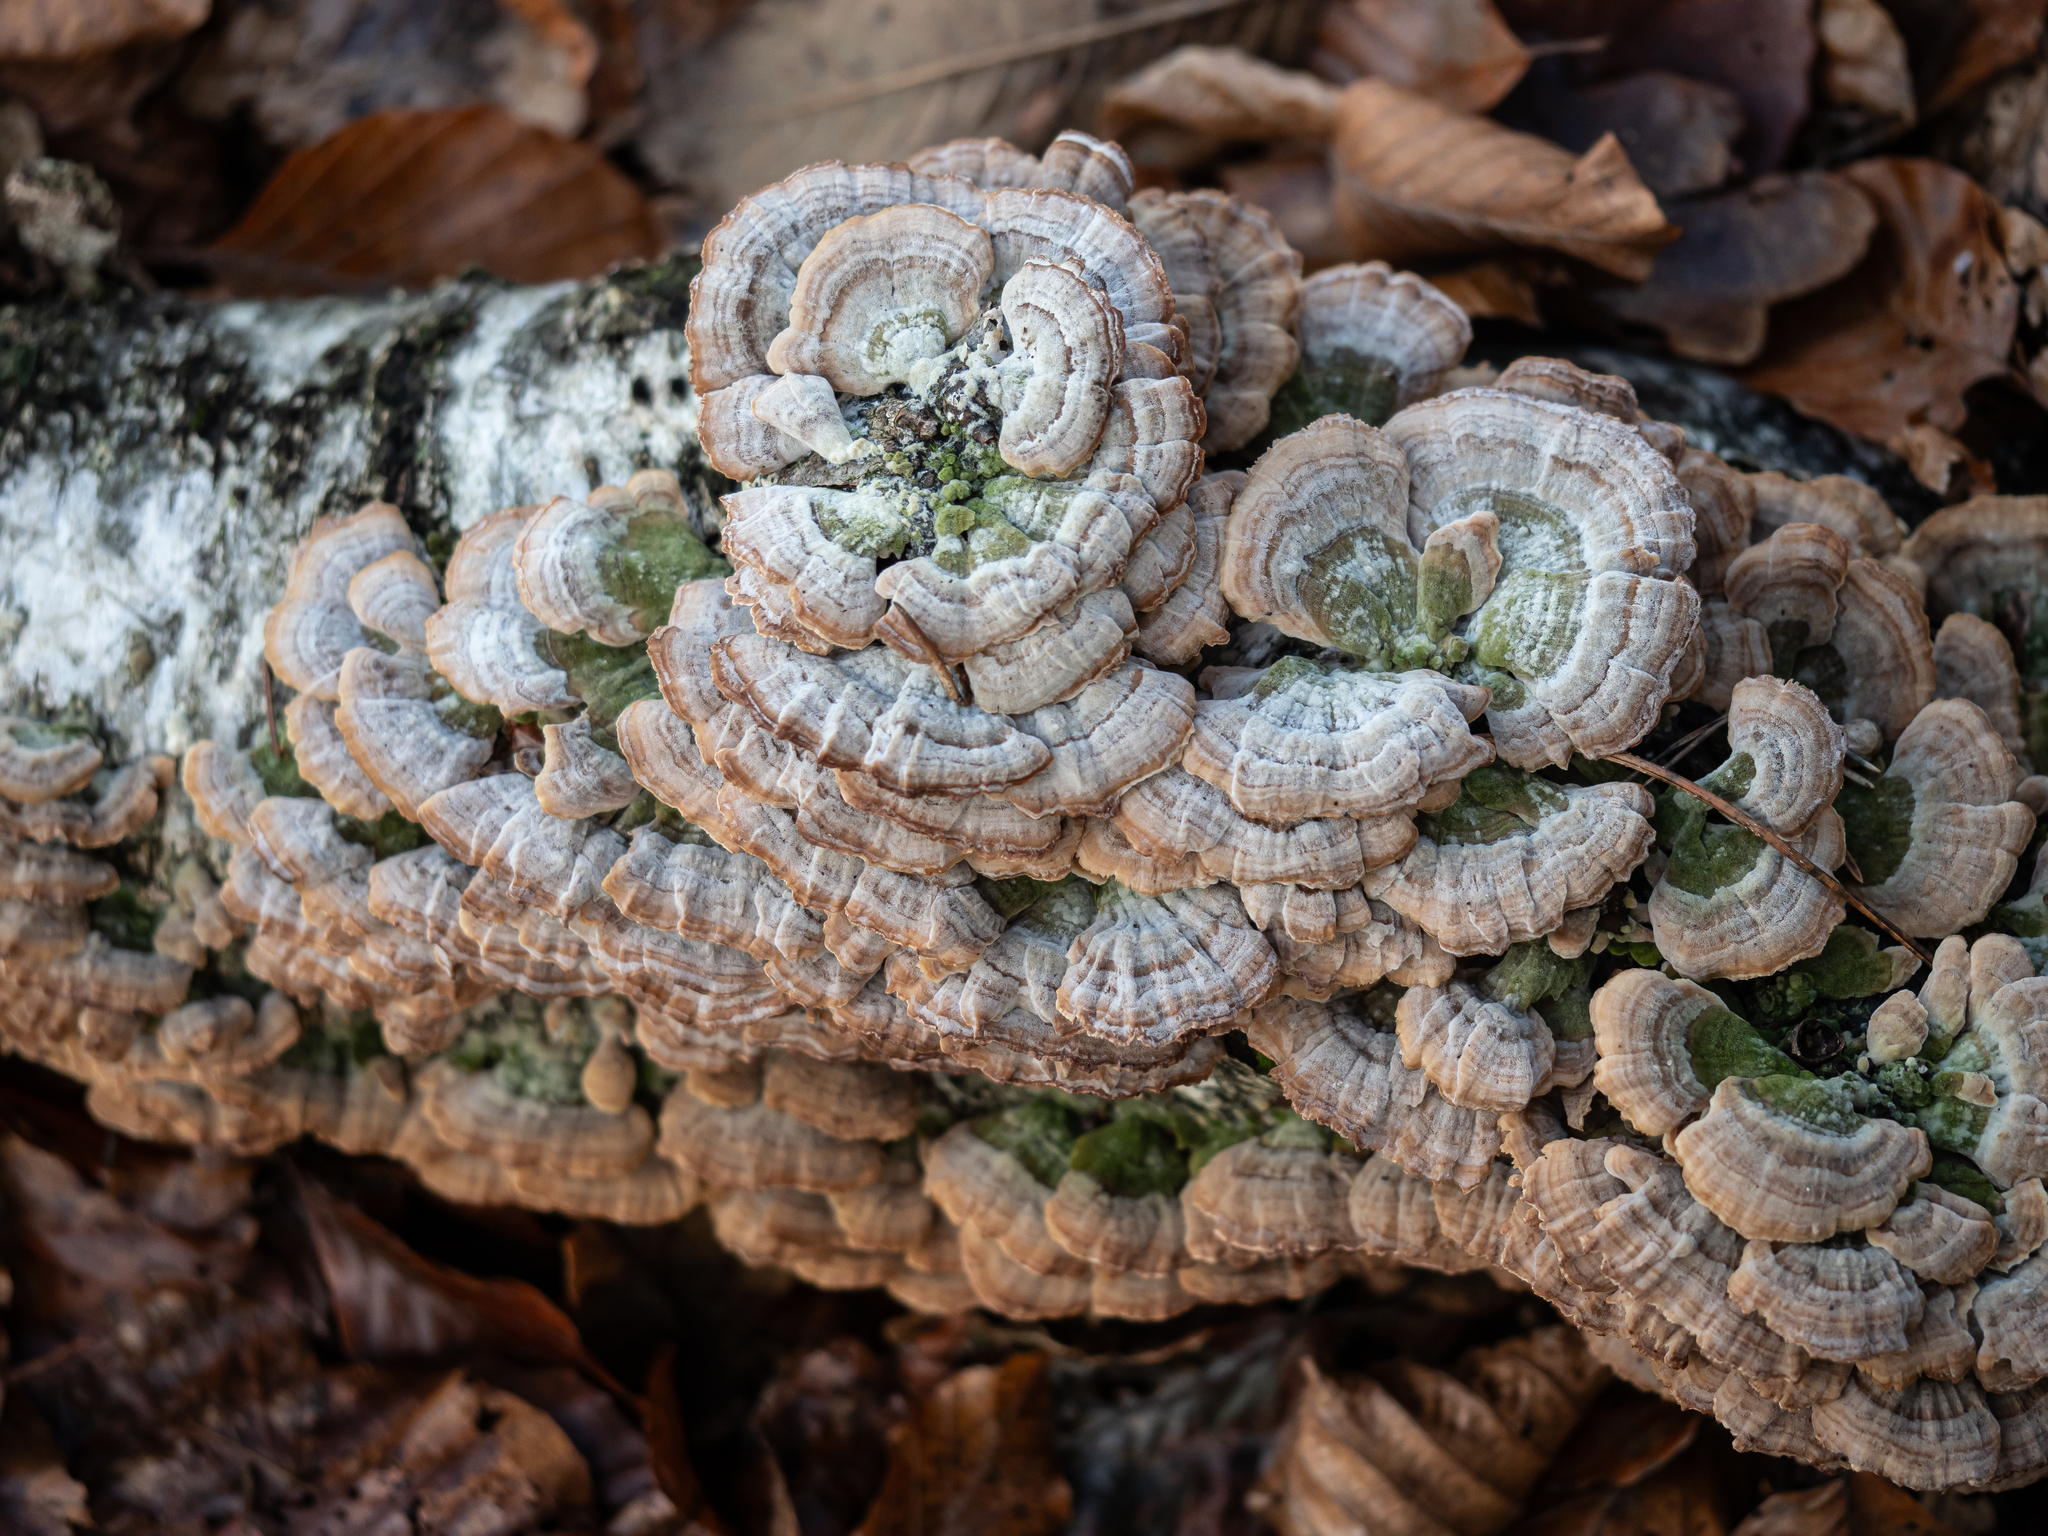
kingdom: Fungi
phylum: Basidiomycota
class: Agaricomycetes
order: Hymenochaetales
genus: Trichaptum
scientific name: Trichaptum biforme
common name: Violet-toothed polypore
